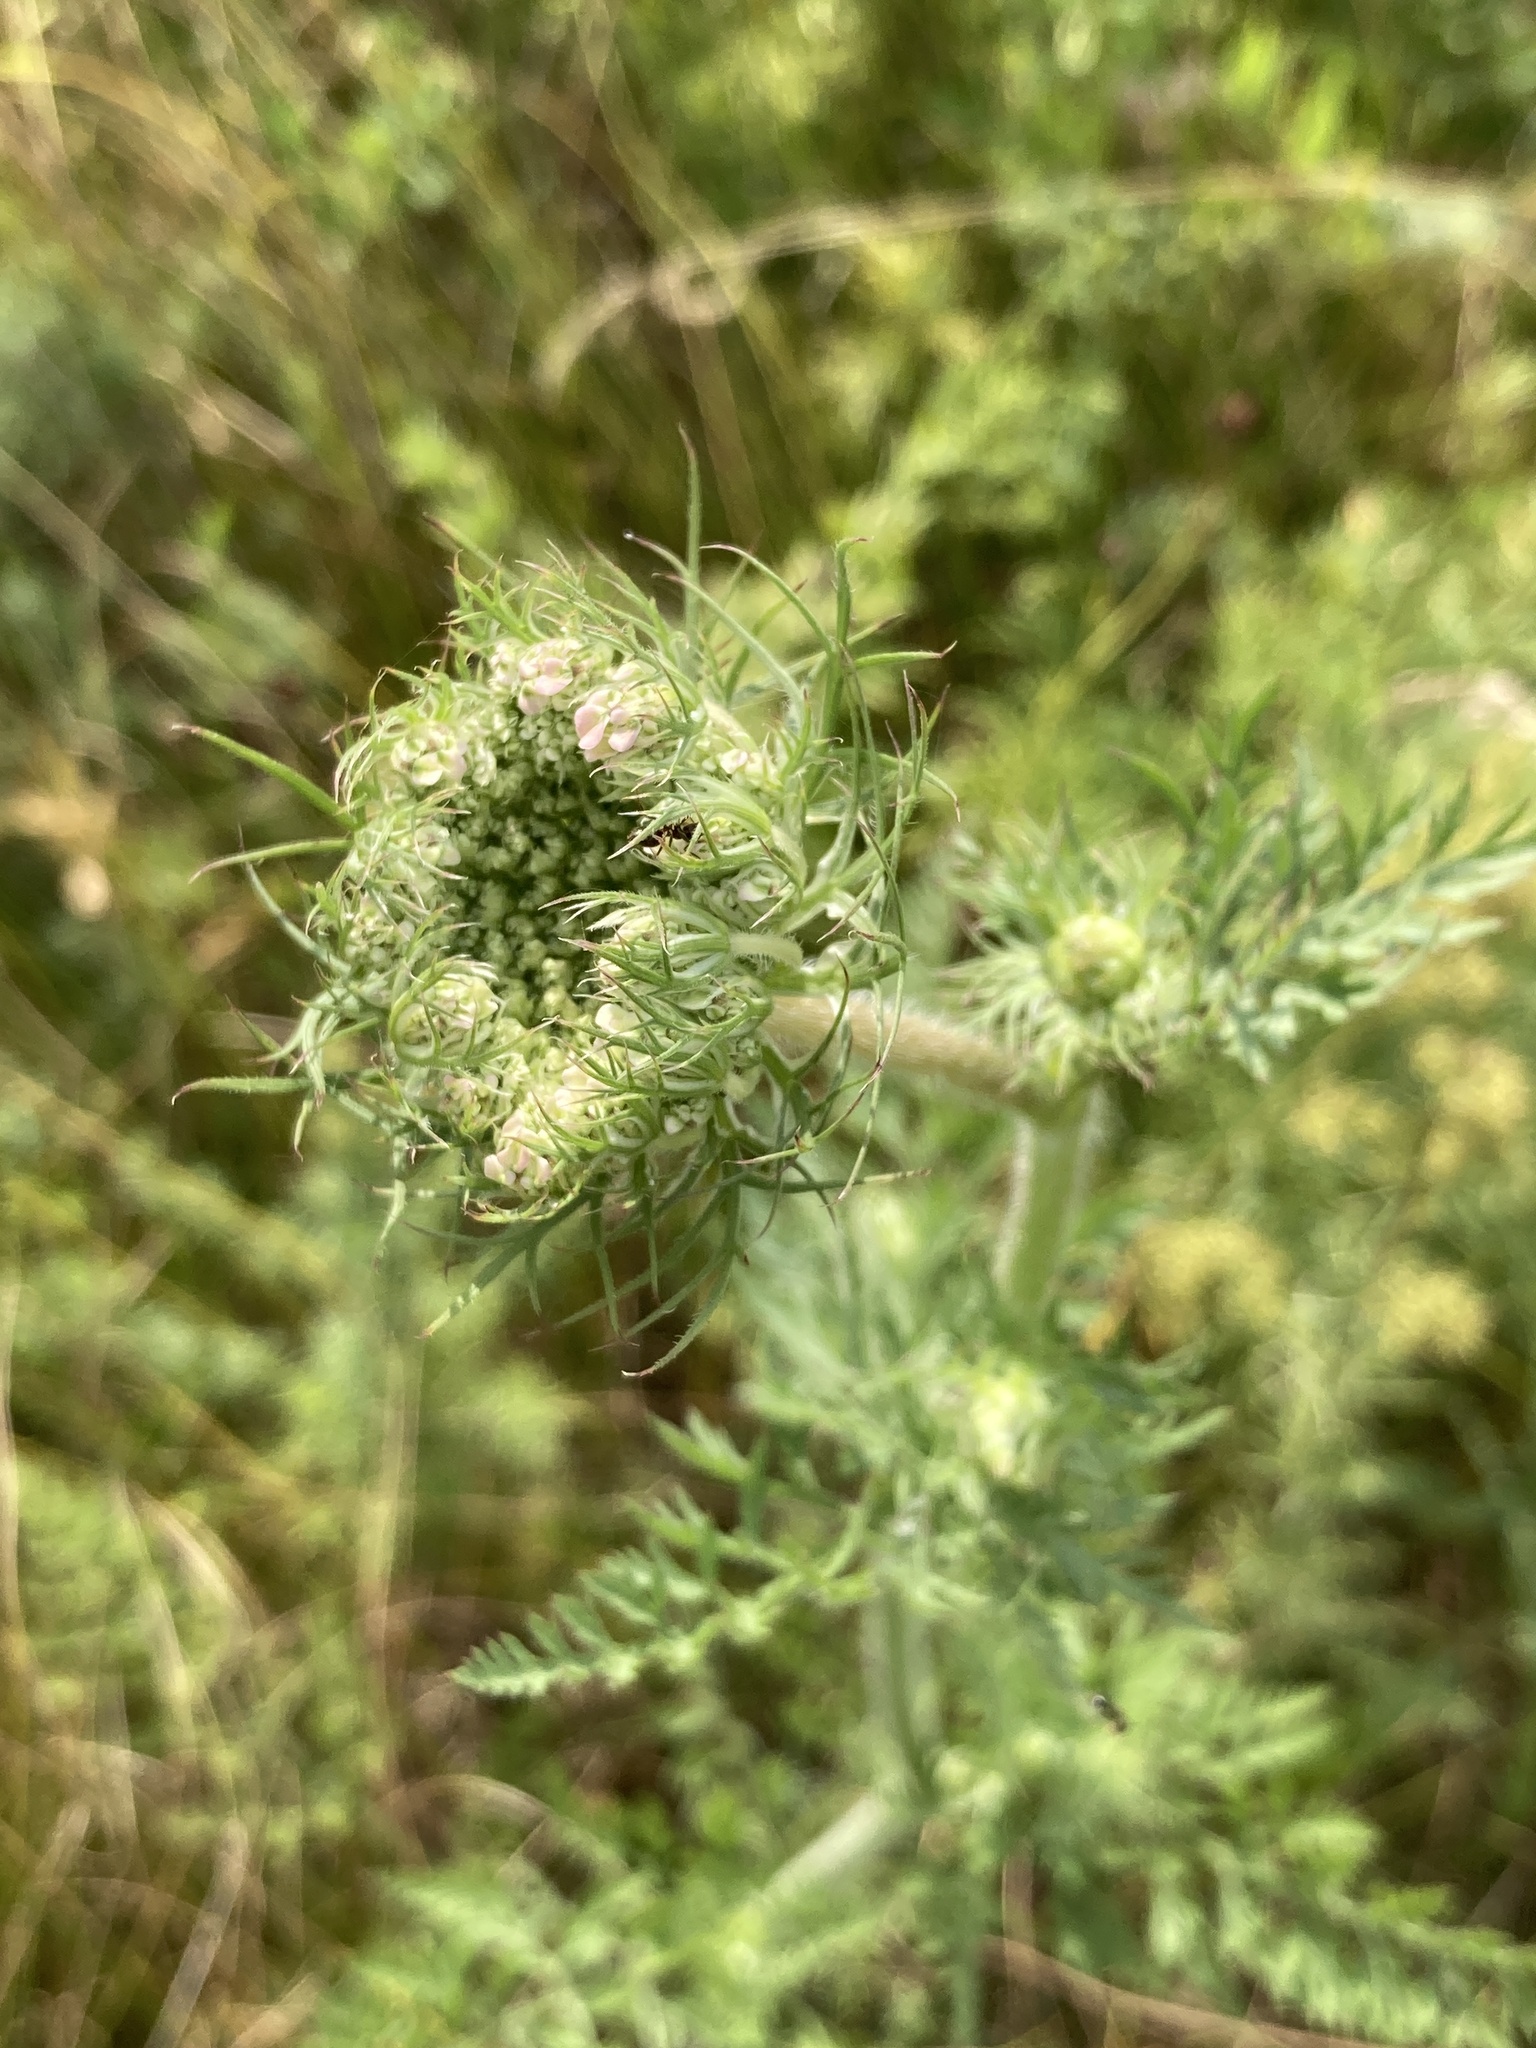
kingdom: Plantae
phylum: Tracheophyta
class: Magnoliopsida
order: Apiales
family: Apiaceae
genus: Daucus
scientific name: Daucus carota
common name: Wild carrot
